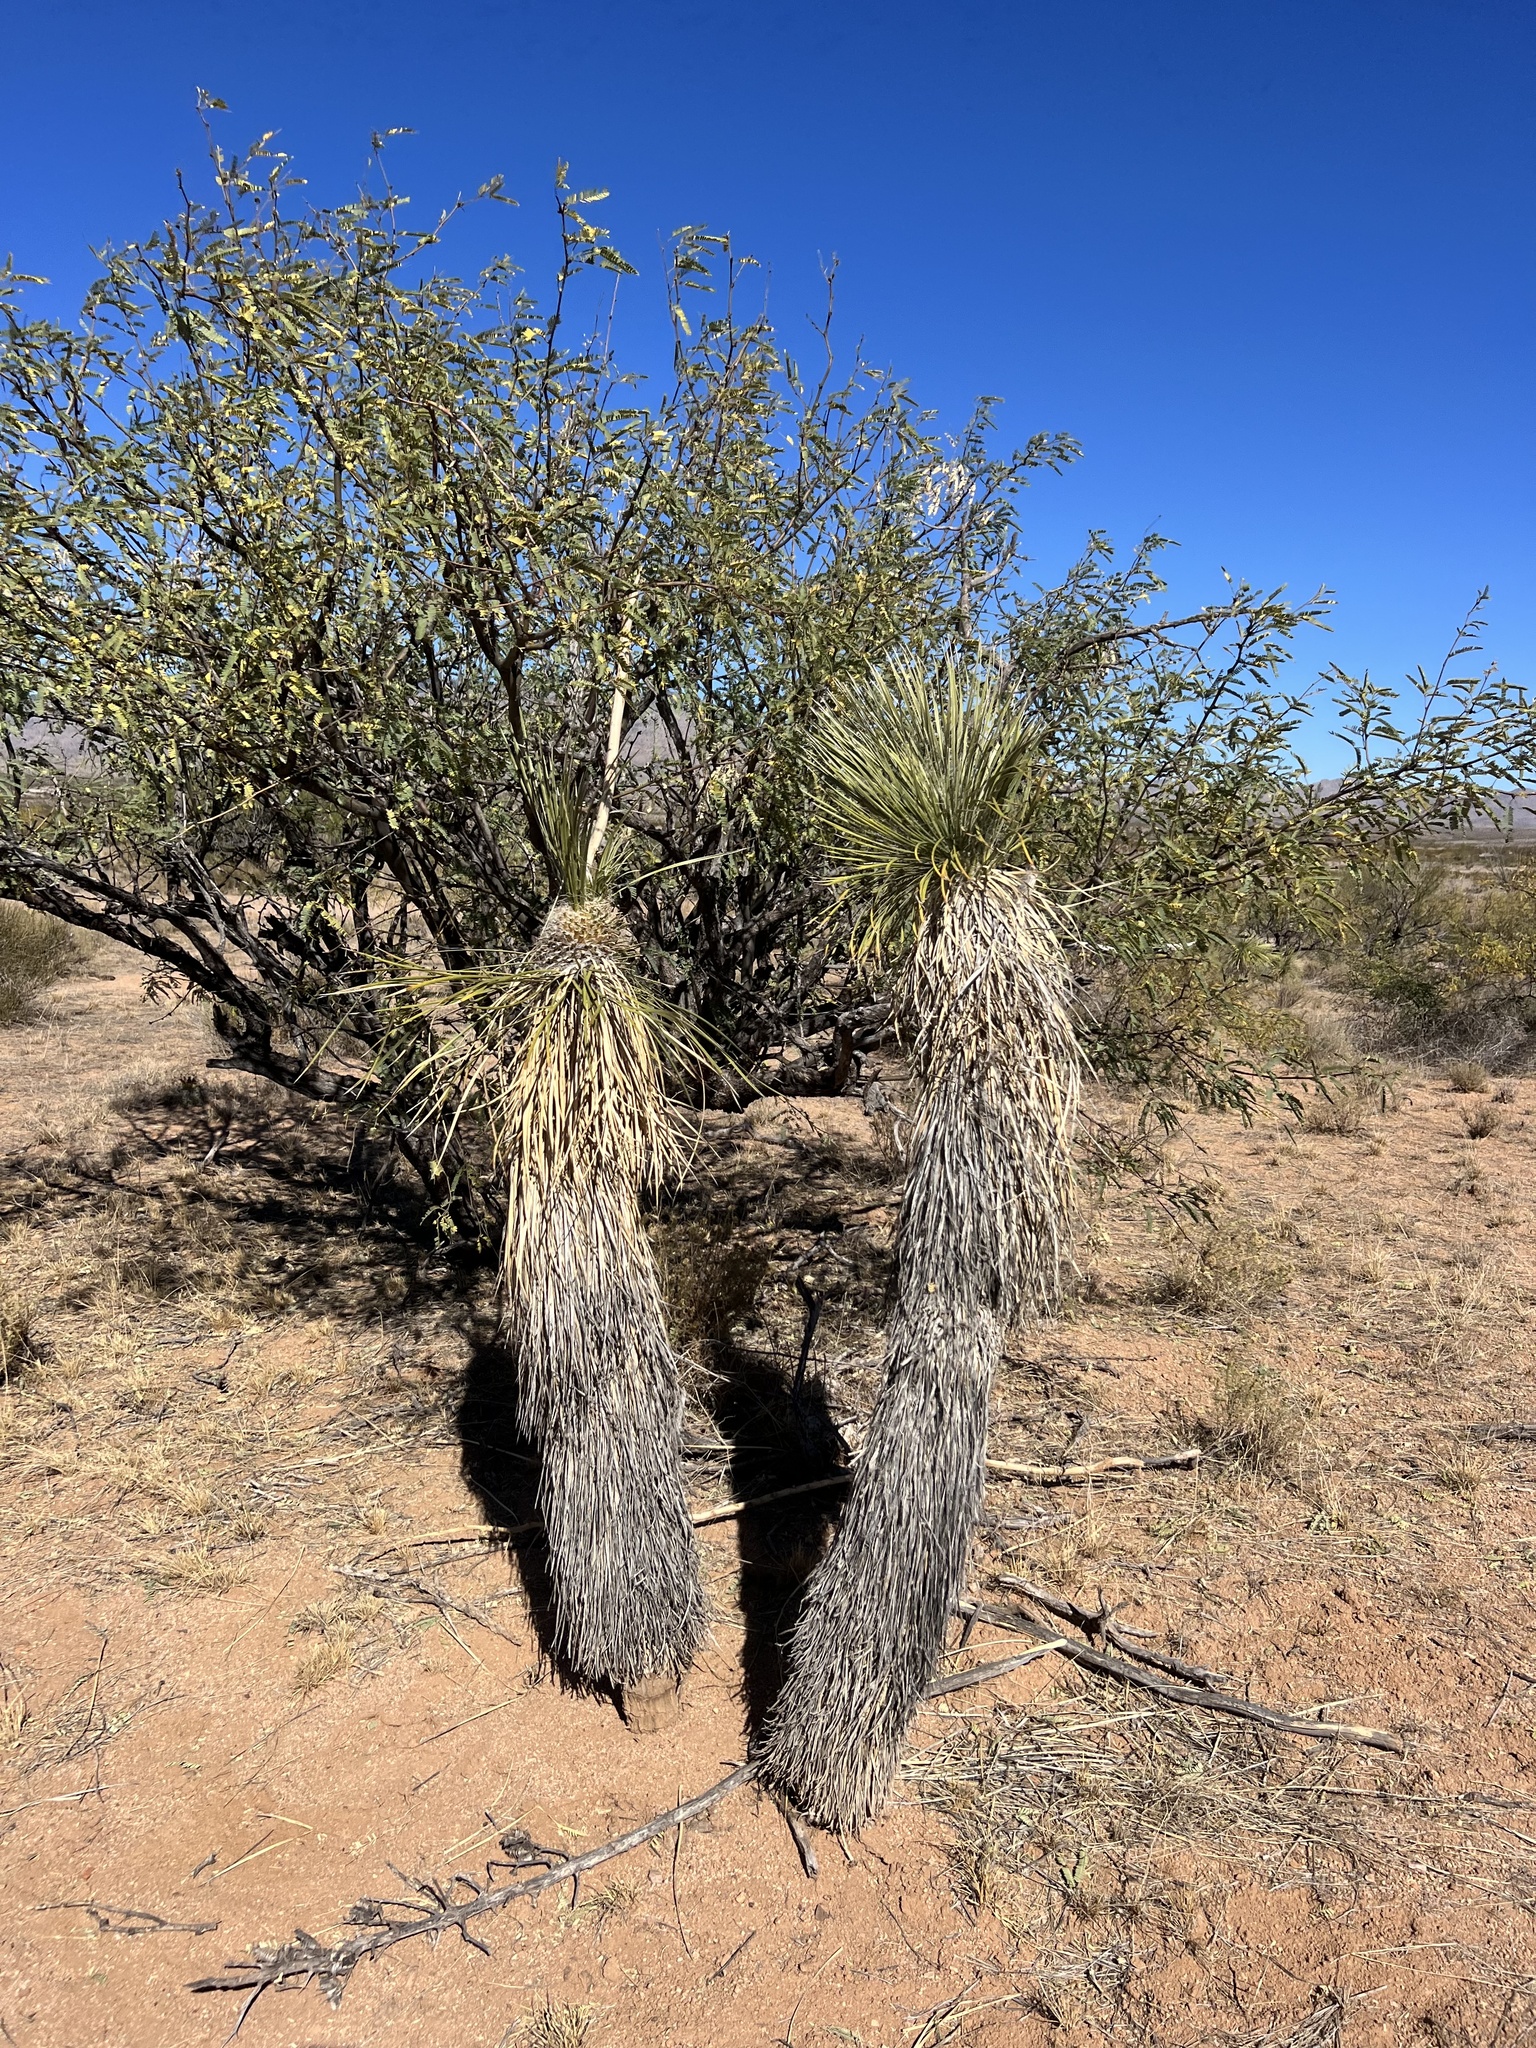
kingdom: Plantae
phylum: Tracheophyta
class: Liliopsida
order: Asparagales
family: Asparagaceae
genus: Yucca
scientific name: Yucca elata
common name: Palmella
